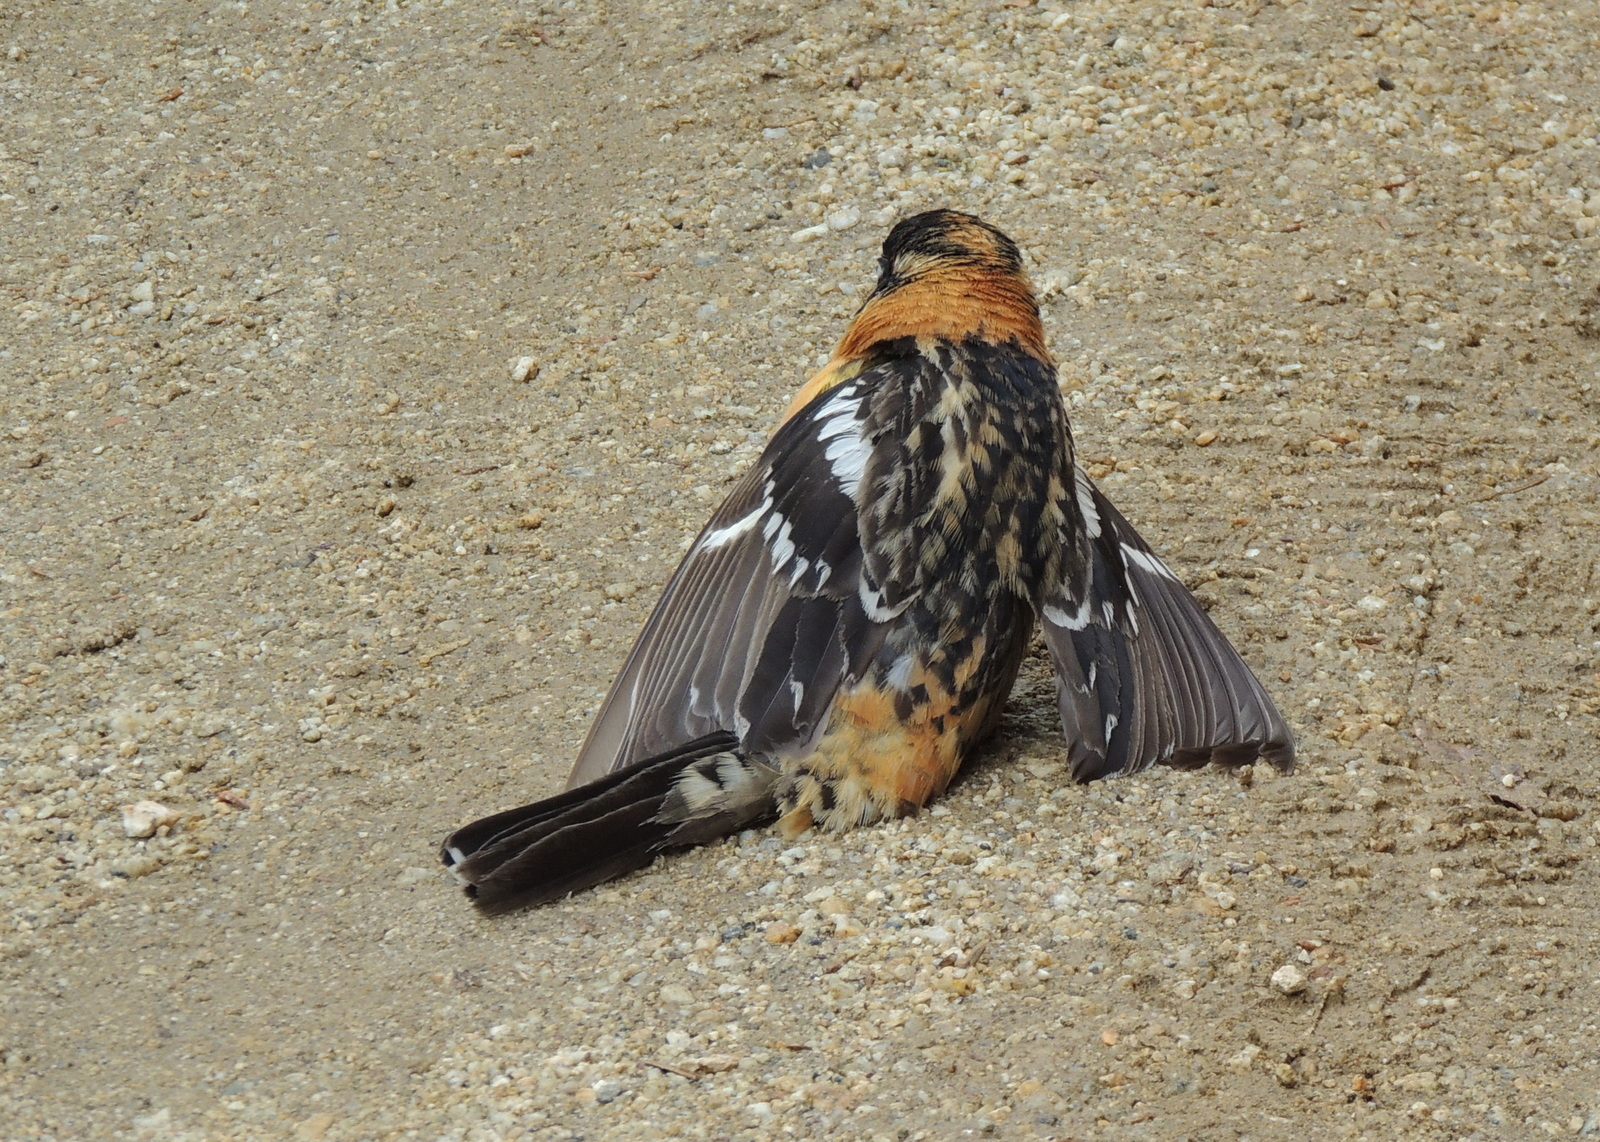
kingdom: Animalia
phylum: Chordata
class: Aves
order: Passeriformes
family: Cardinalidae
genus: Pheucticus
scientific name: Pheucticus melanocephalus
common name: Black-headed grosbeak
